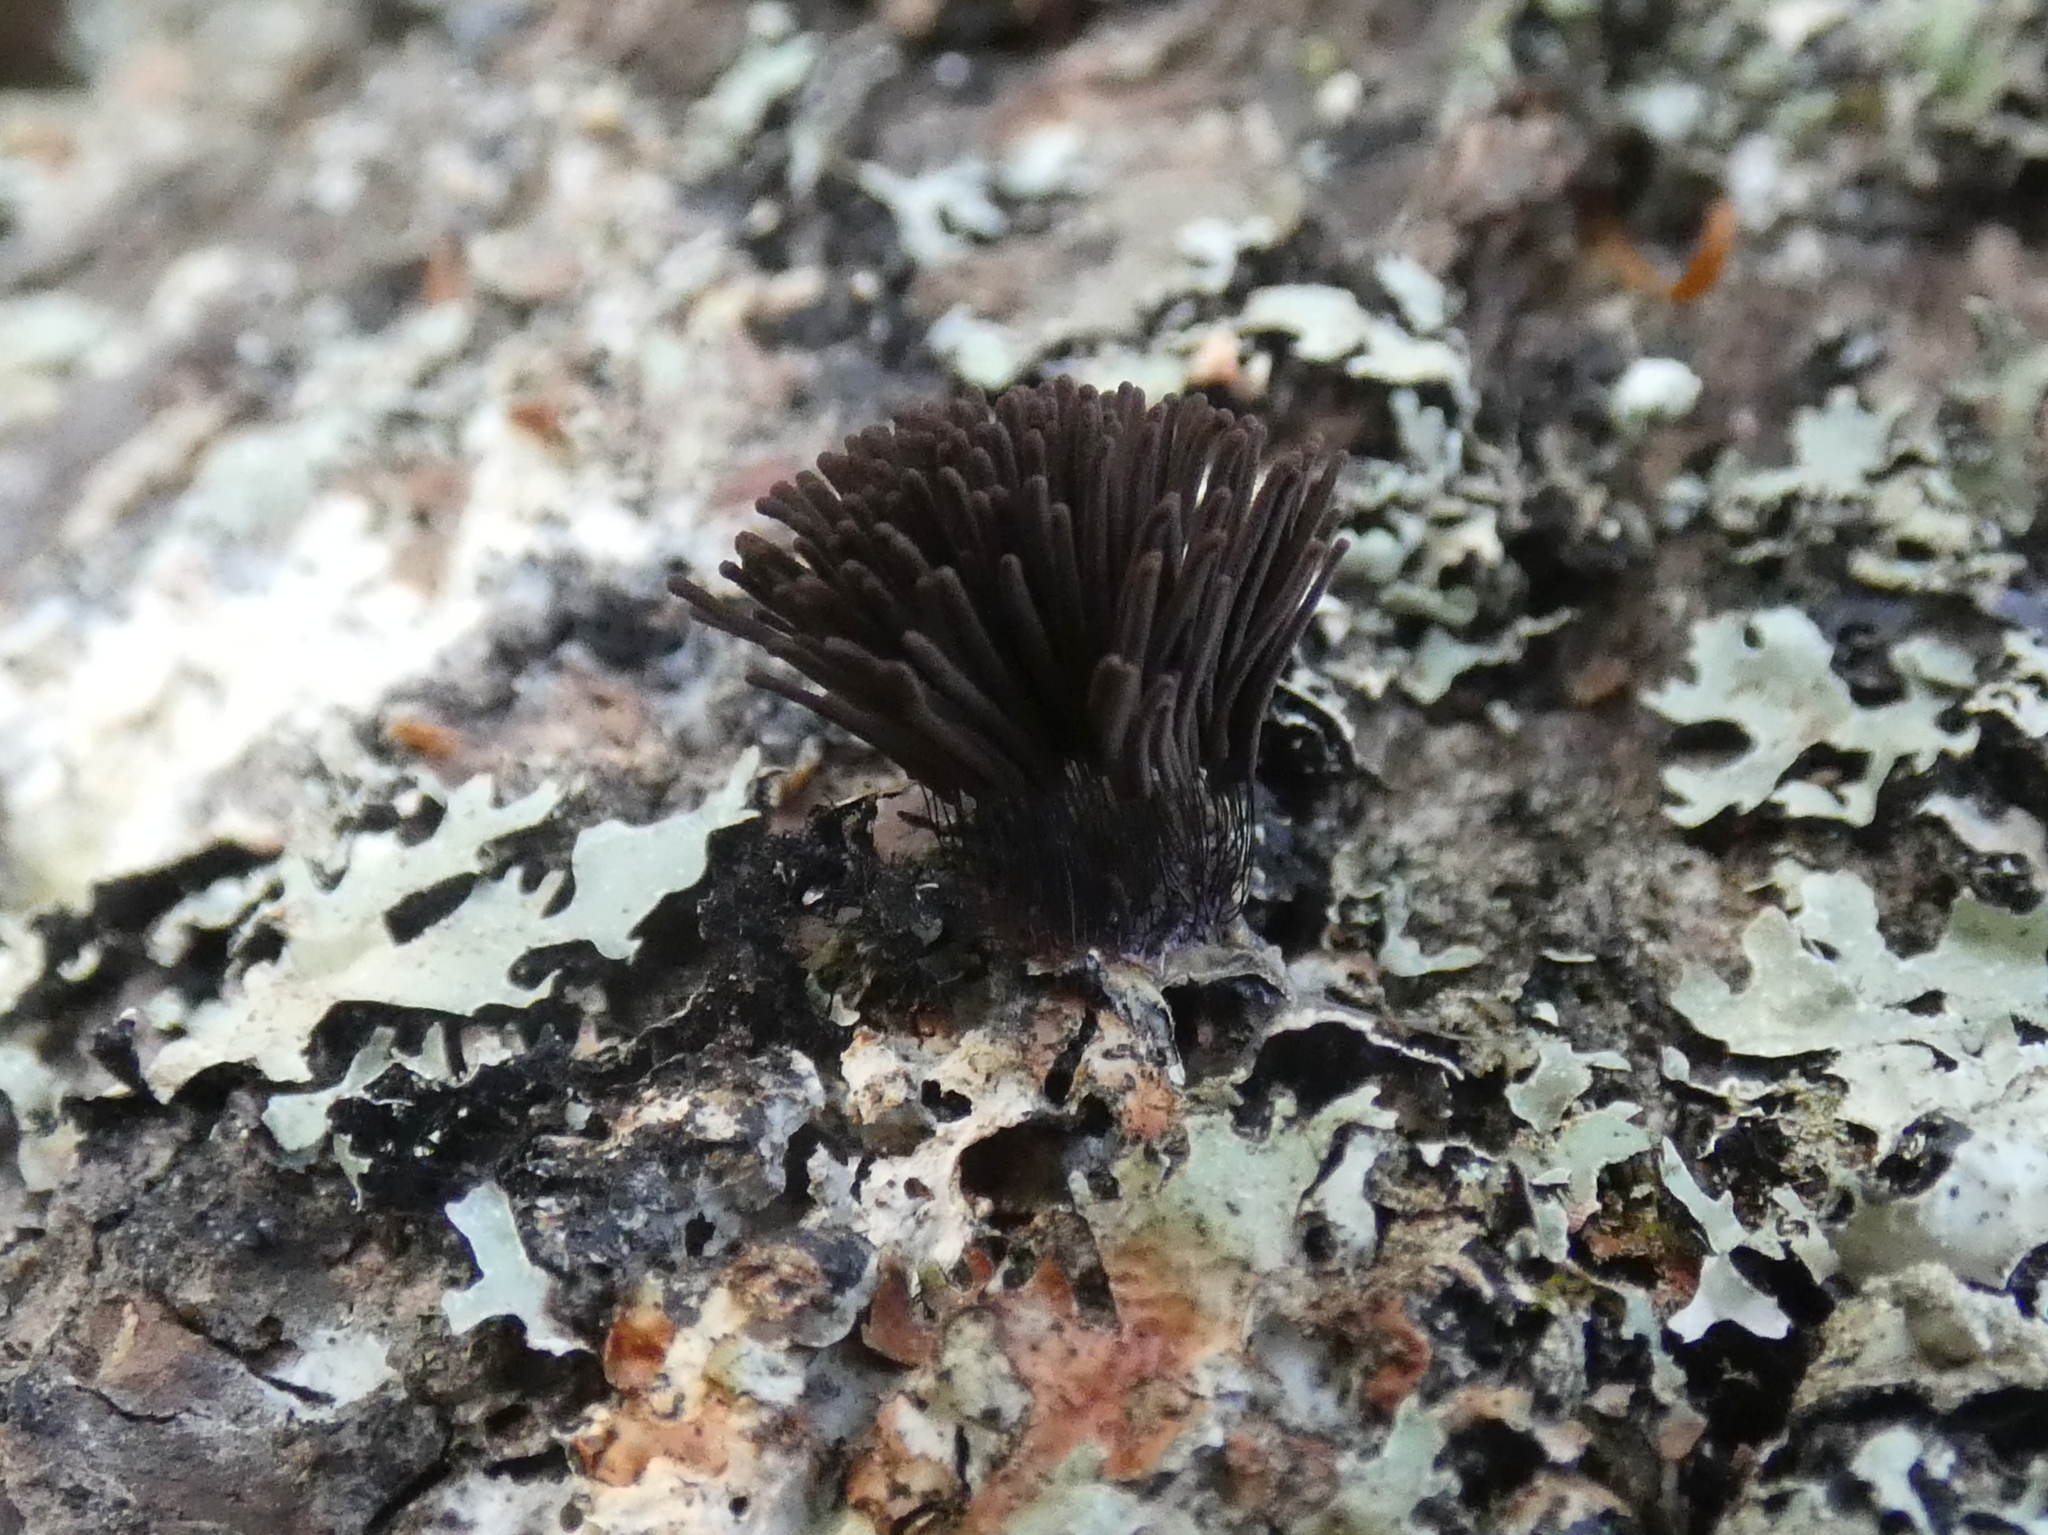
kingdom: Protozoa
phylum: Mycetozoa
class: Myxomycetes
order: Stemonitidales
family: Stemonitidaceae
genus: Stemonitis
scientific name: Stemonitis splendens
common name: Chocolate tube slime
